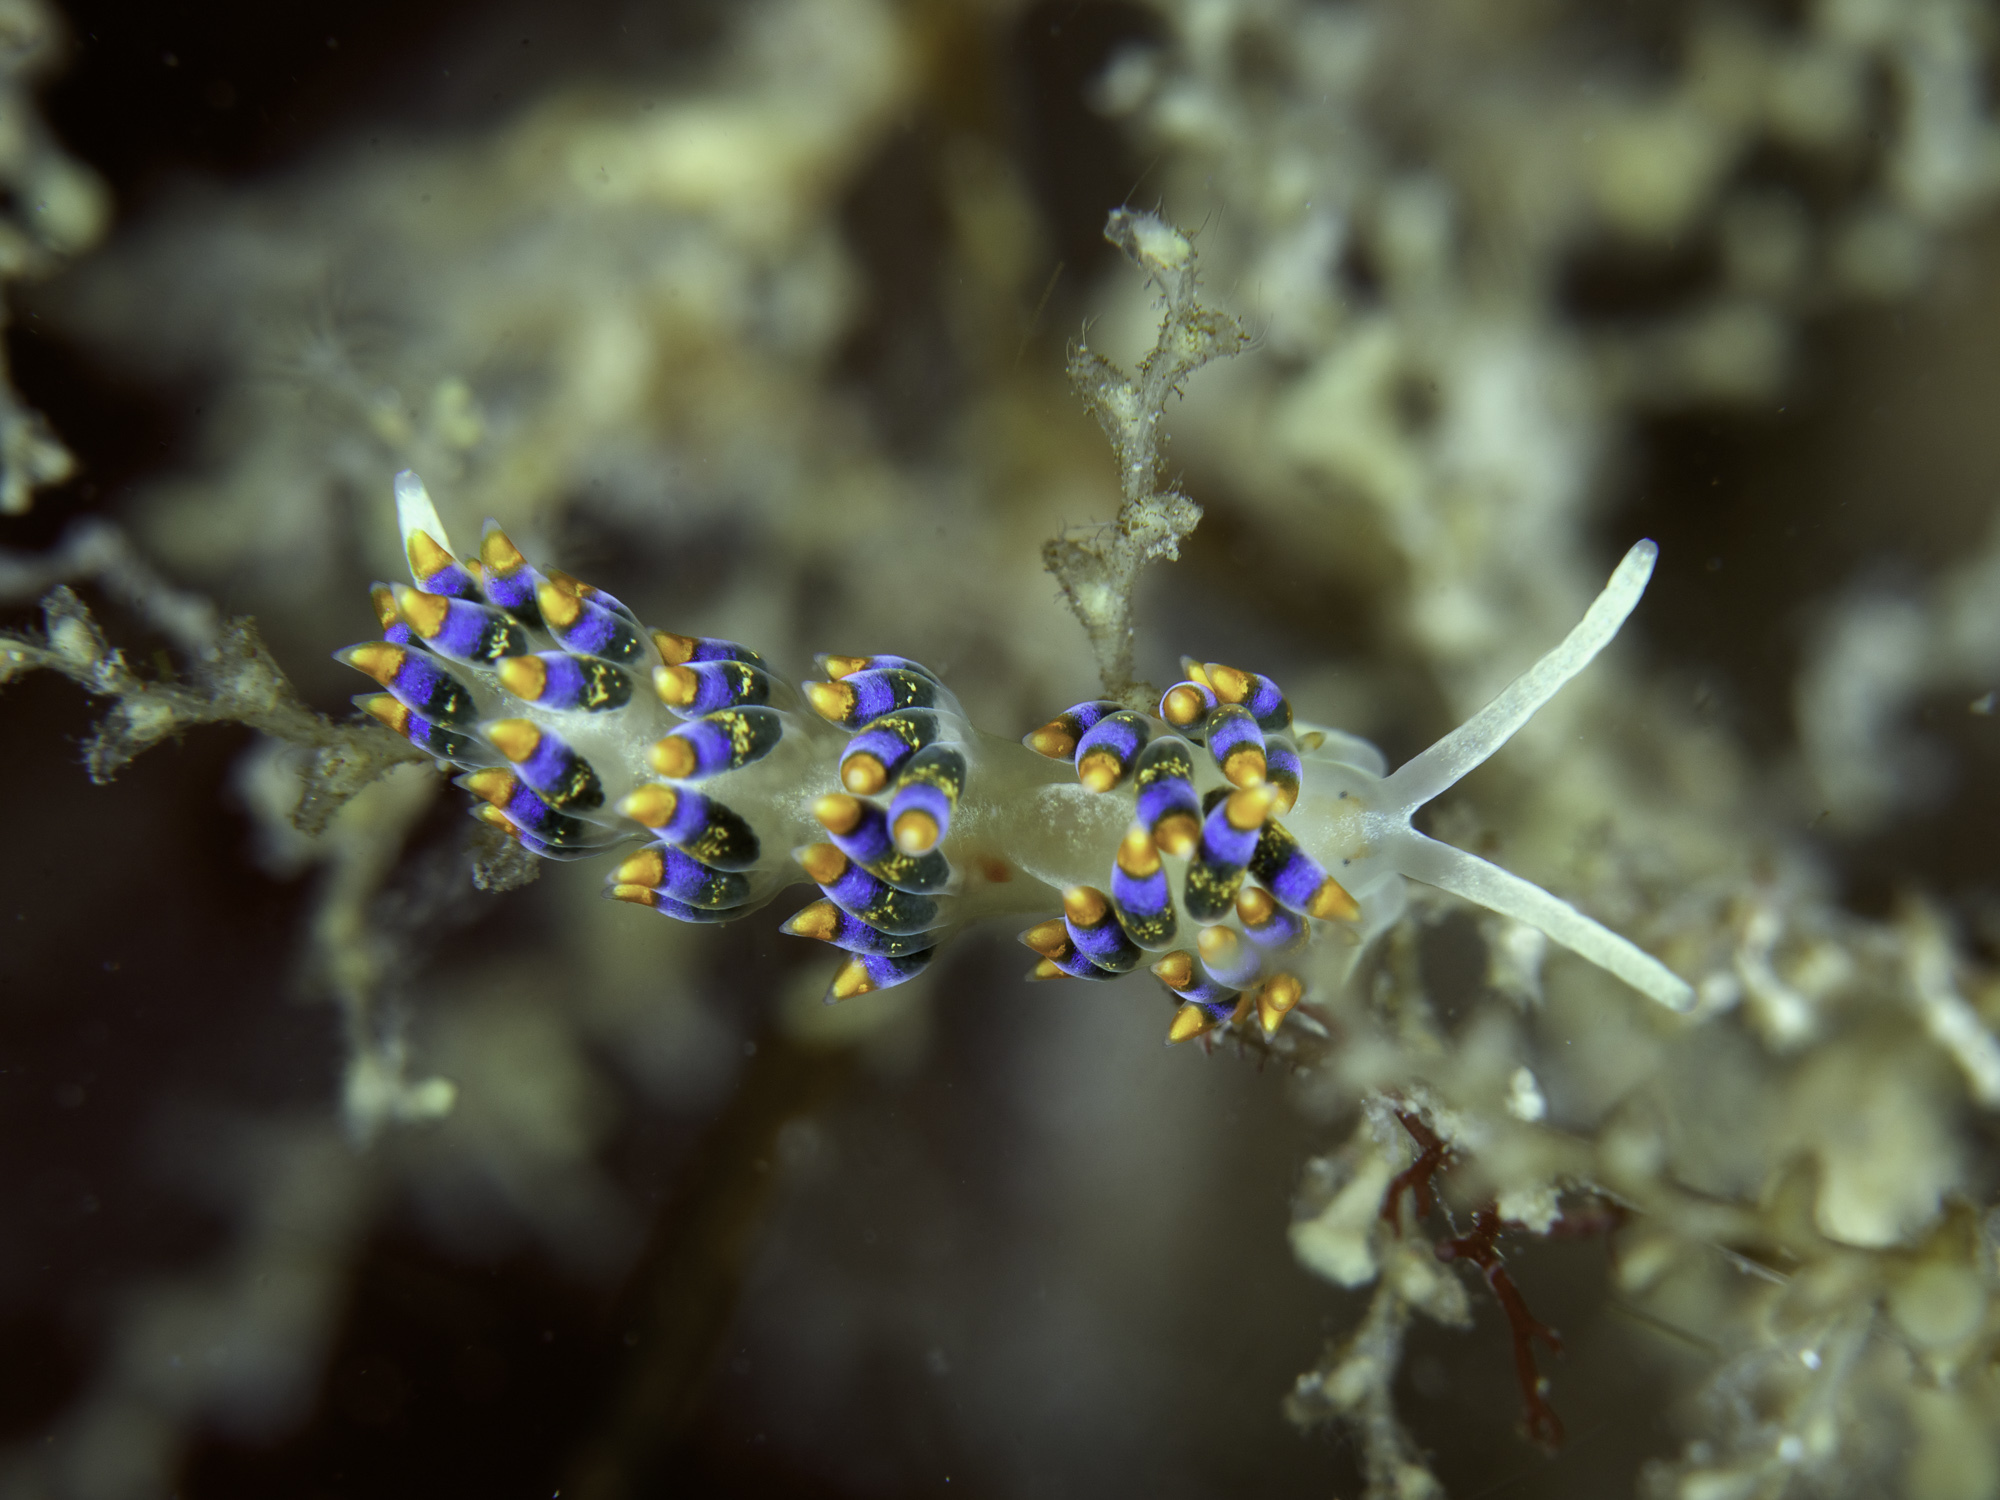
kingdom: Animalia
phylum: Mollusca
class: Gastropoda
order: Nudibranchia
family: Trinchesiidae
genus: Trinchesia
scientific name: Trinchesia cuanensis
